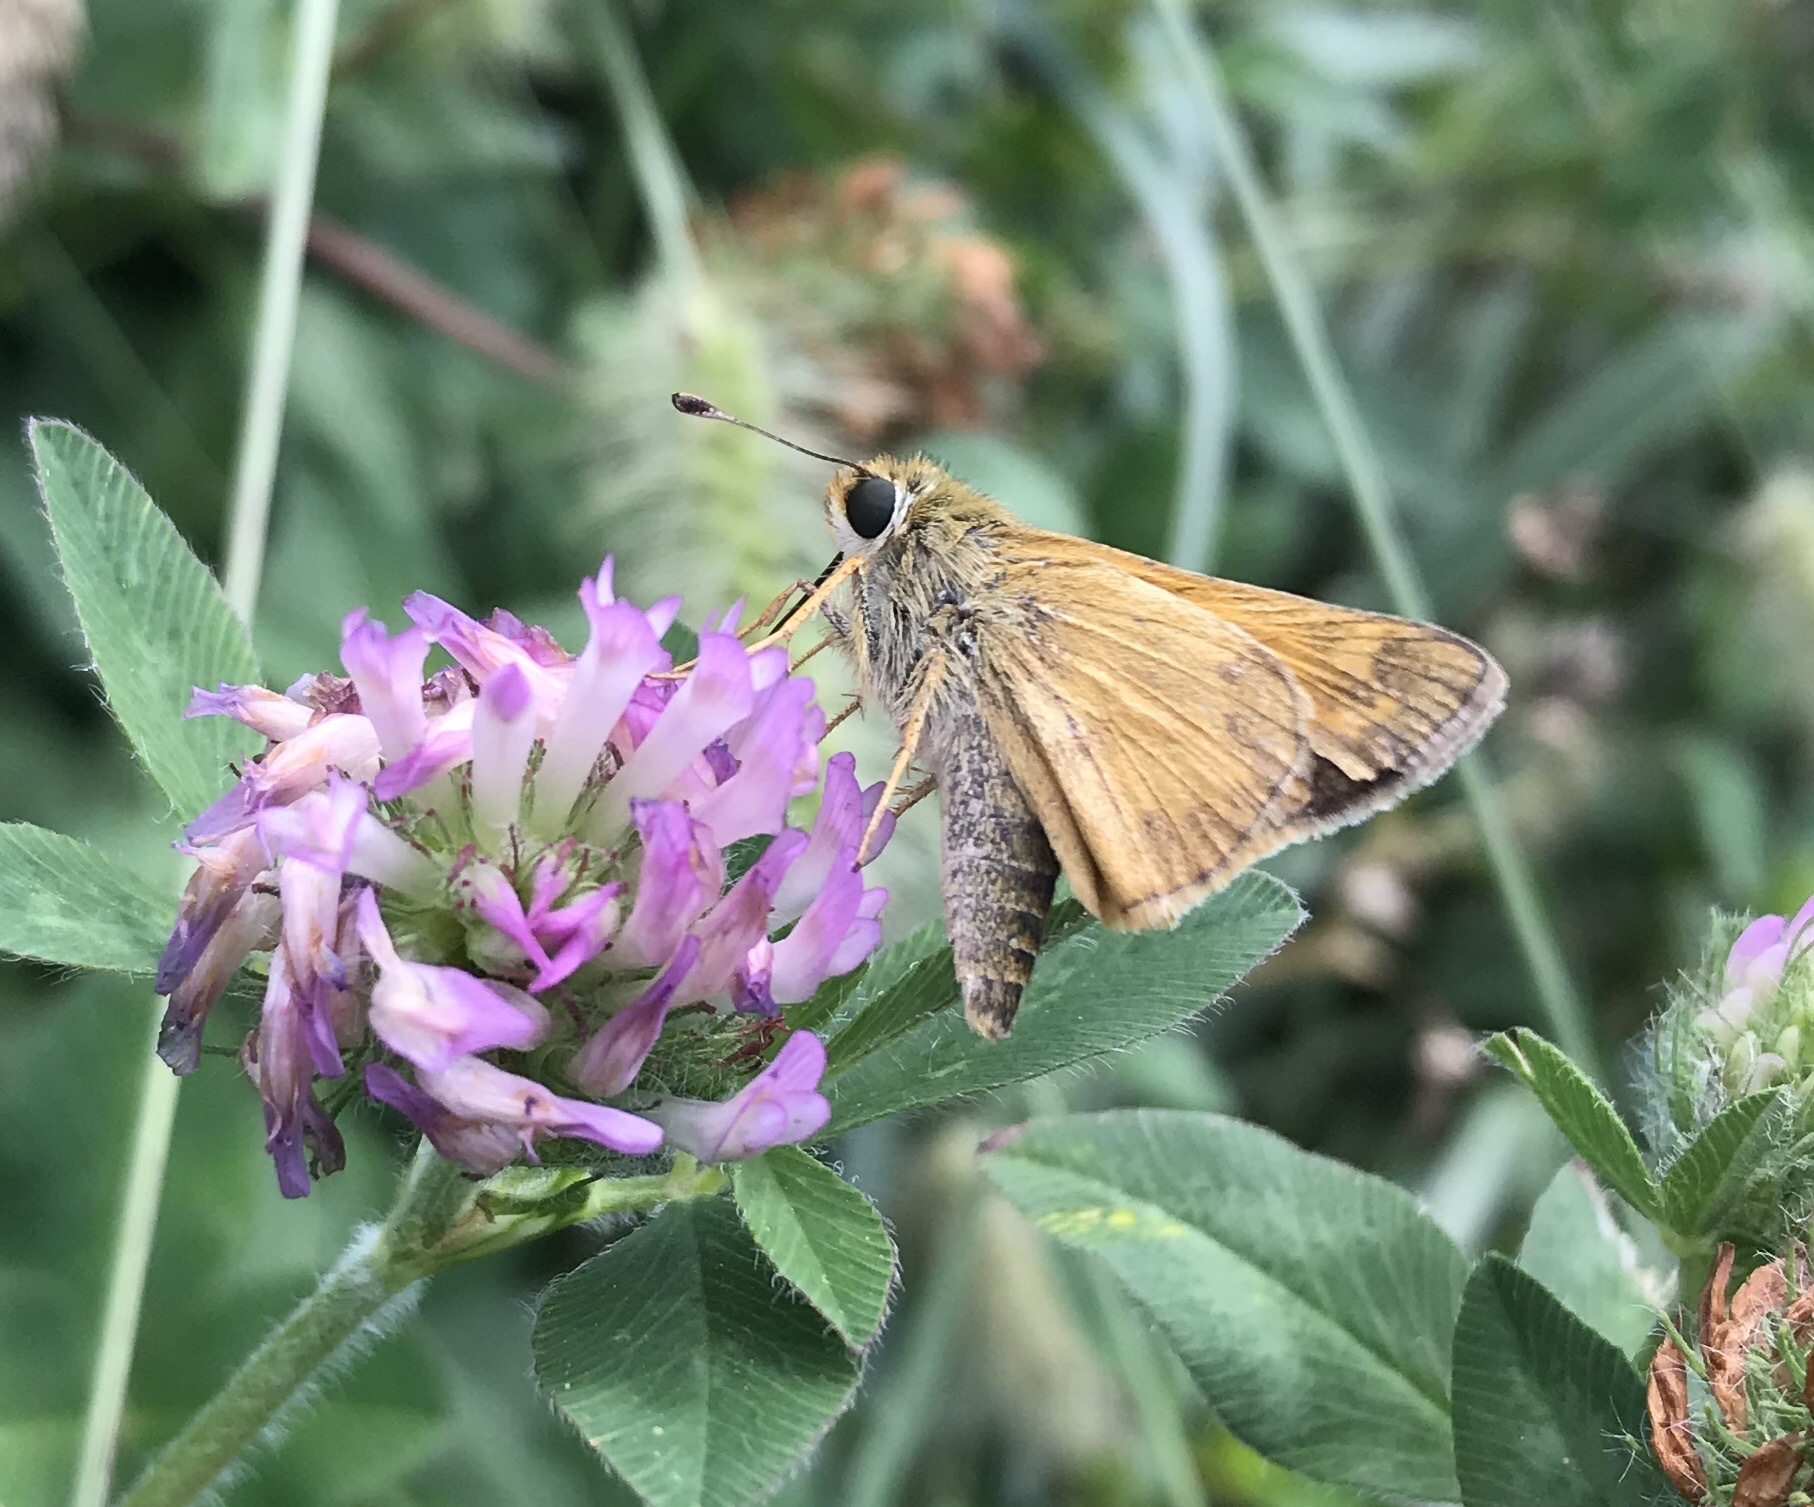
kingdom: Animalia
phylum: Arthropoda
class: Insecta
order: Lepidoptera
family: Hesperiidae
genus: Atalopedes
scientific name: Atalopedes
